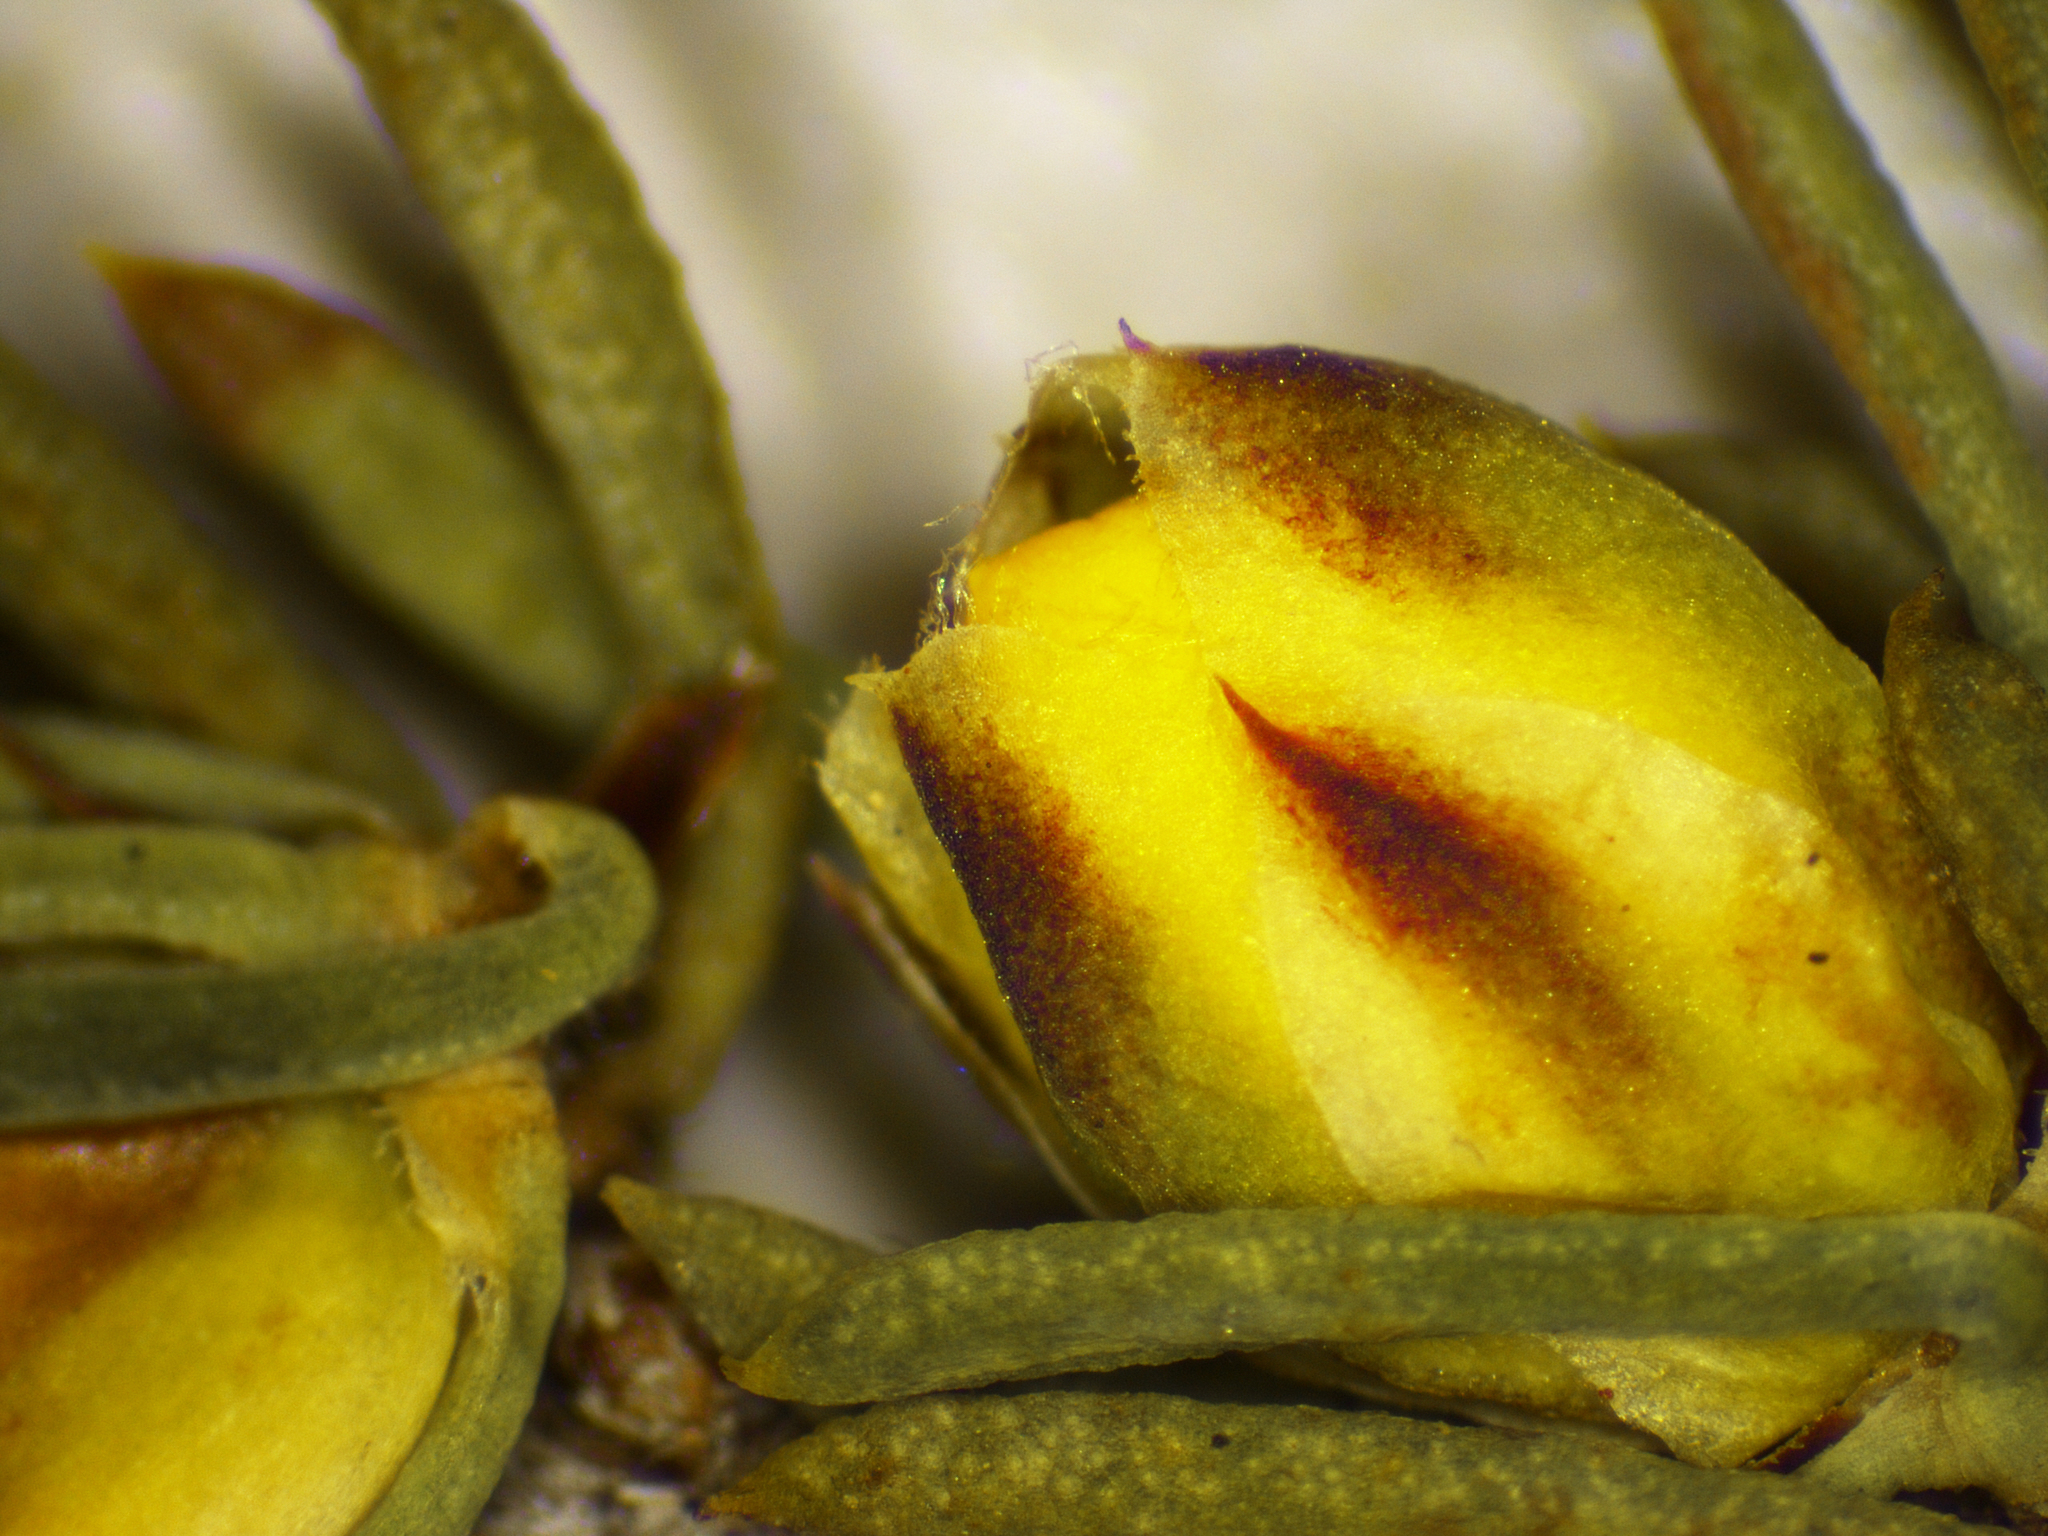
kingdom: Plantae
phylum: Tracheophyta
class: Magnoliopsida
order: Dilleniales
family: Dilleniaceae
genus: Hibbertia
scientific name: Hibbertia hemignosta
